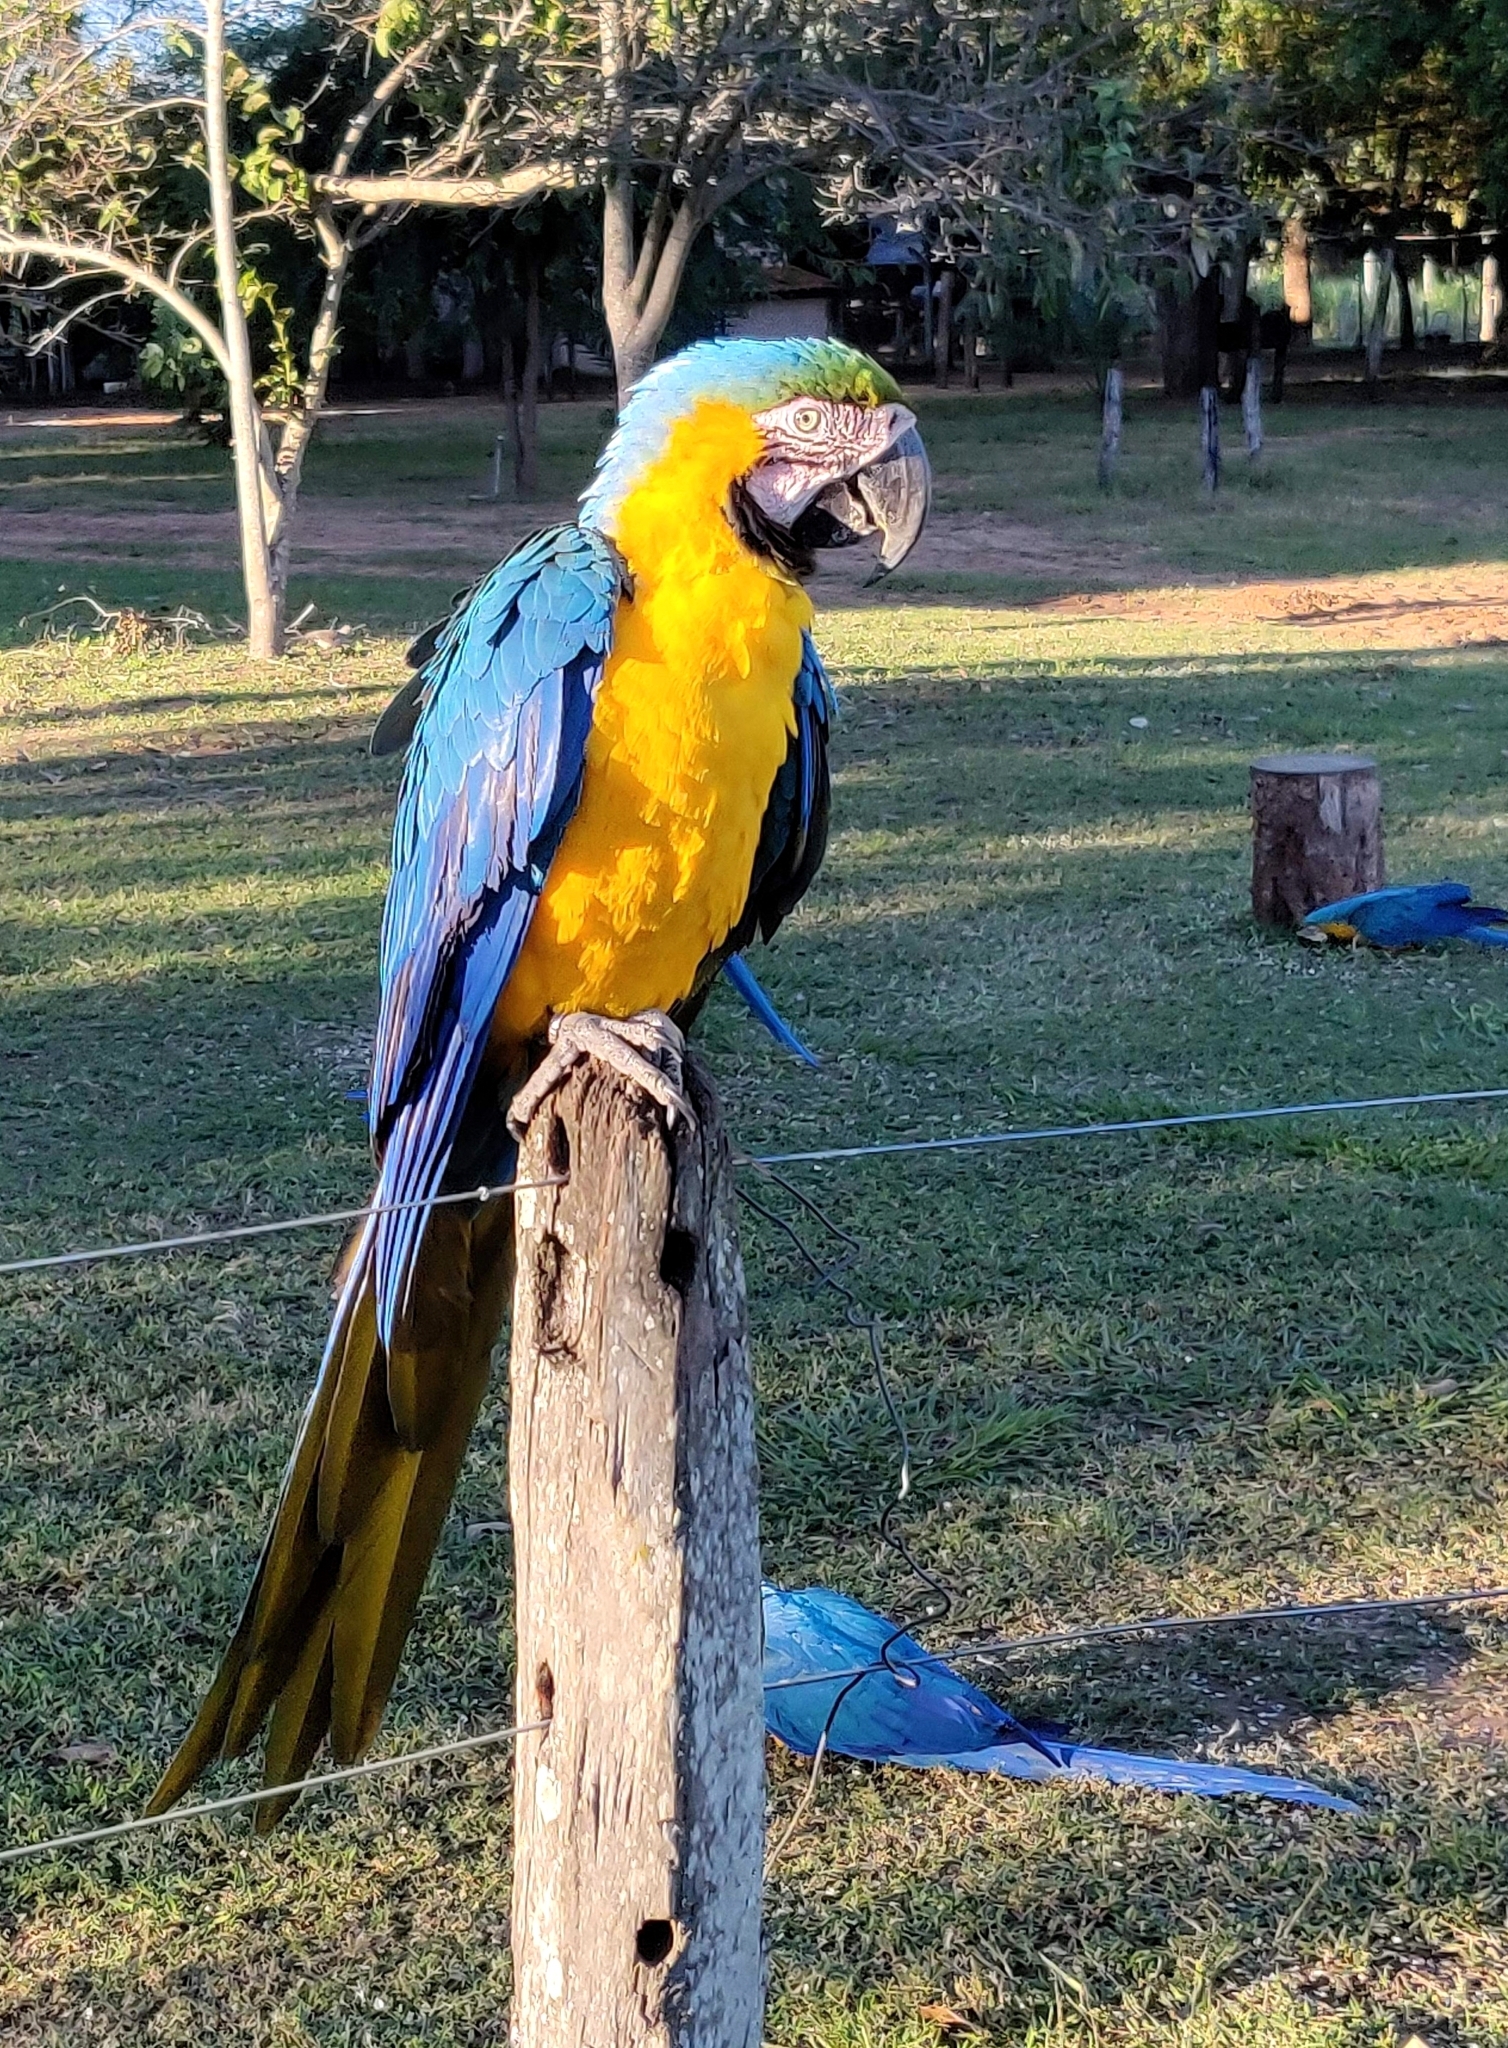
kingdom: Animalia
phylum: Chordata
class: Aves
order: Psittaciformes
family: Psittacidae
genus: Ara
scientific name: Ara ararauna
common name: Blue-and-yellow macaw
